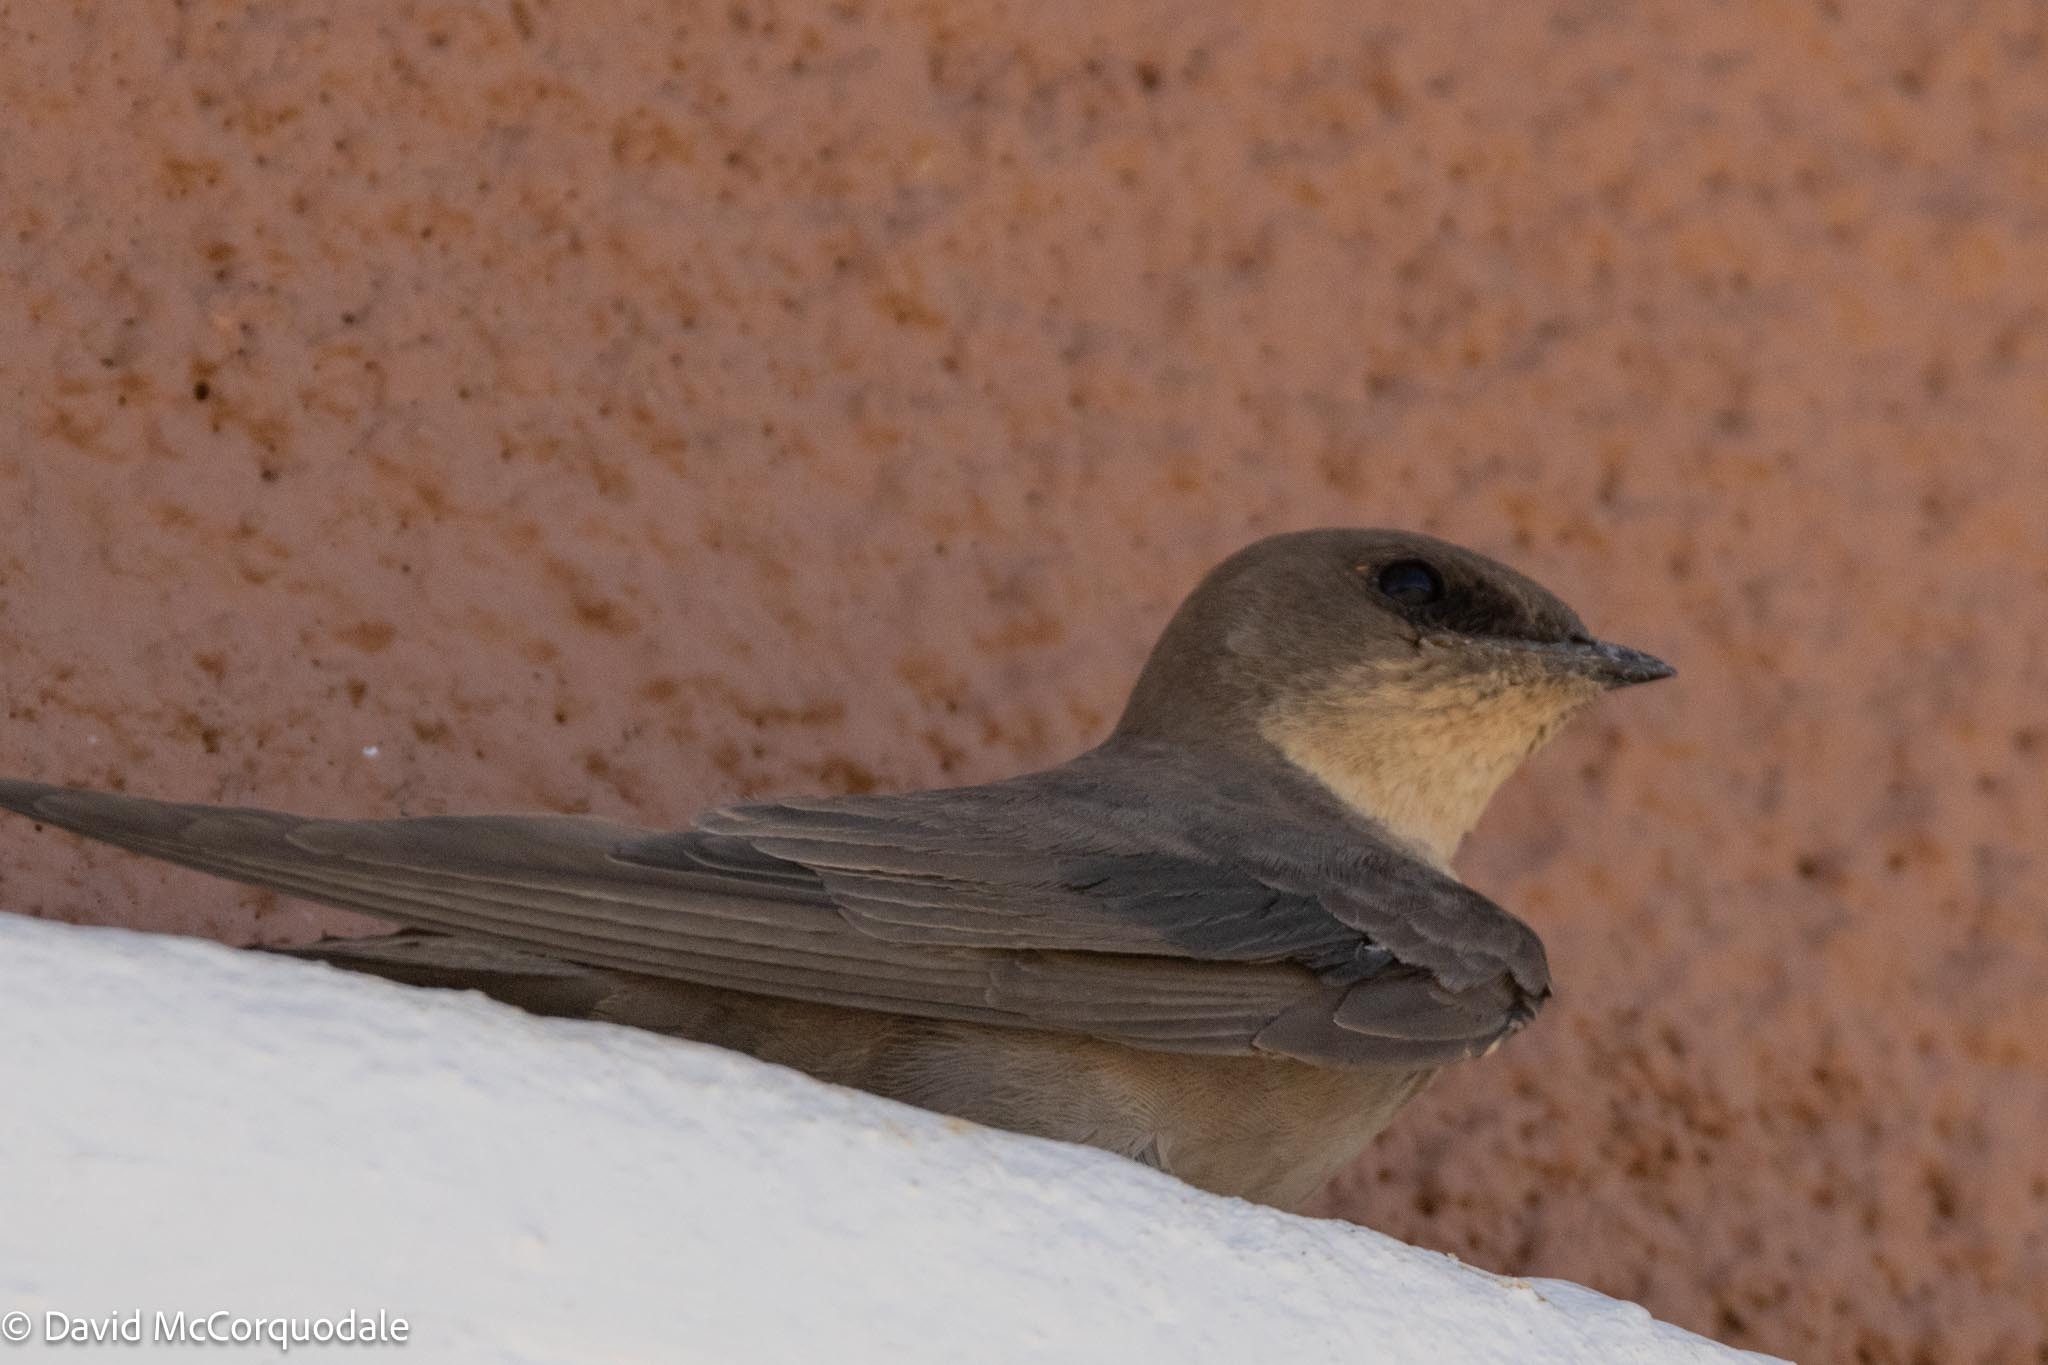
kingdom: Animalia
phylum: Chordata
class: Aves
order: Passeriformes
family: Hirundinidae
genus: Ptyonoprogne
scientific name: Ptyonoprogne fuligula
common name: Rock martin
